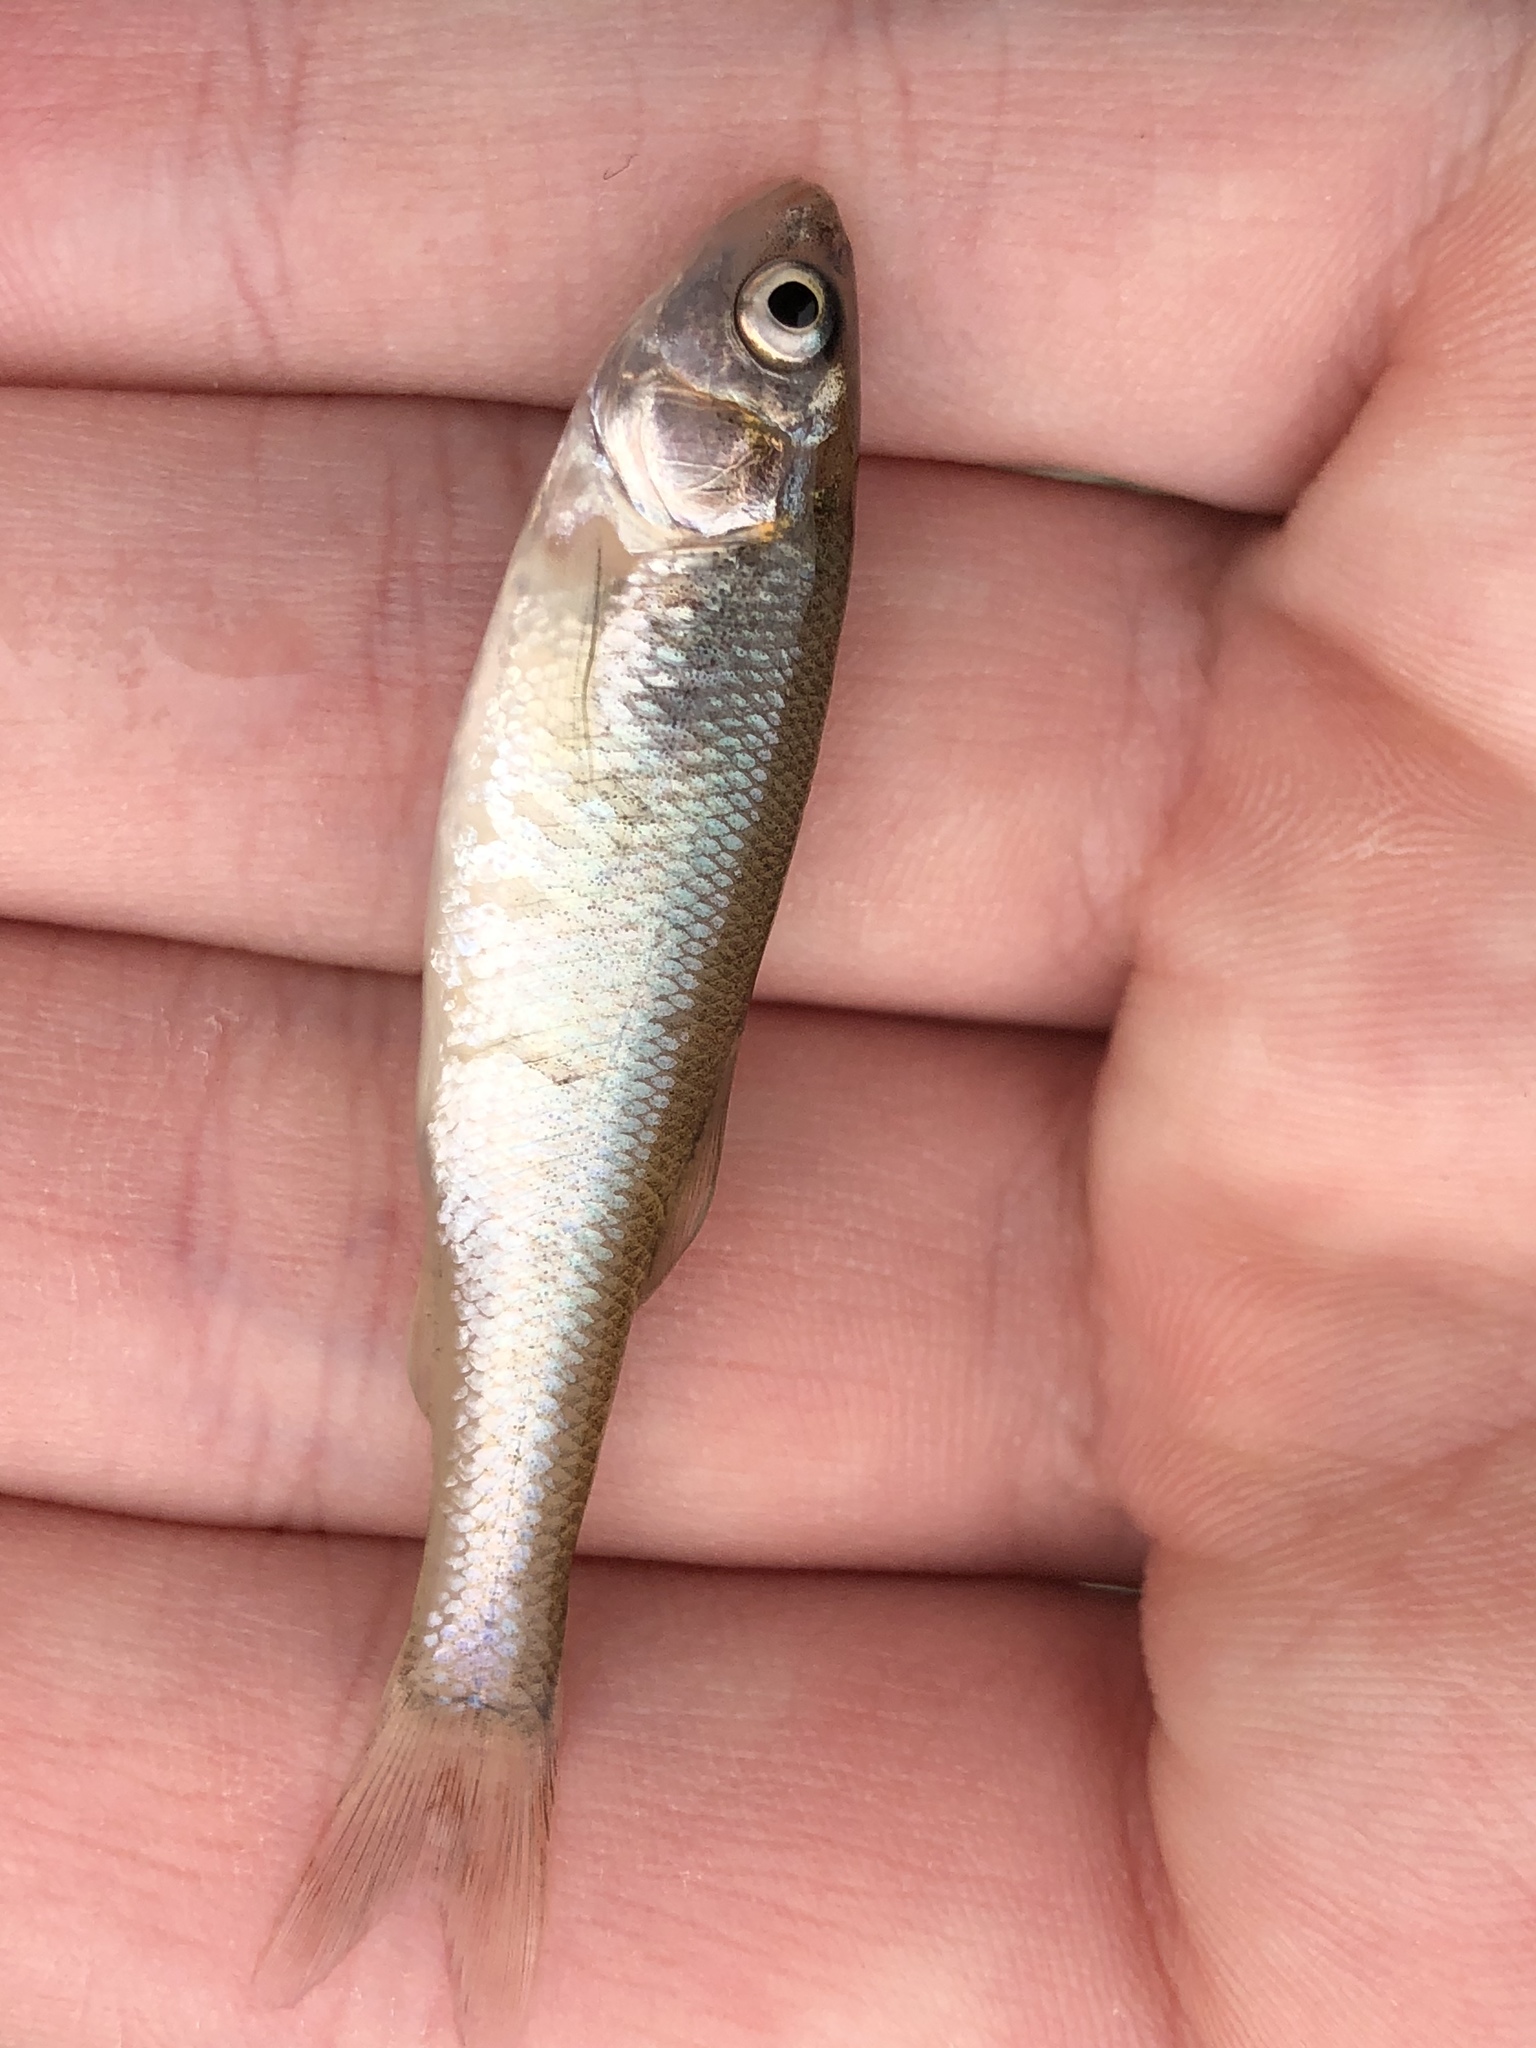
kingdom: Animalia
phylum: Chordata
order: Cypriniformes
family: Cyprinidae
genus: Pimephales
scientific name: Pimephales promelas
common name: Fathead minnow
